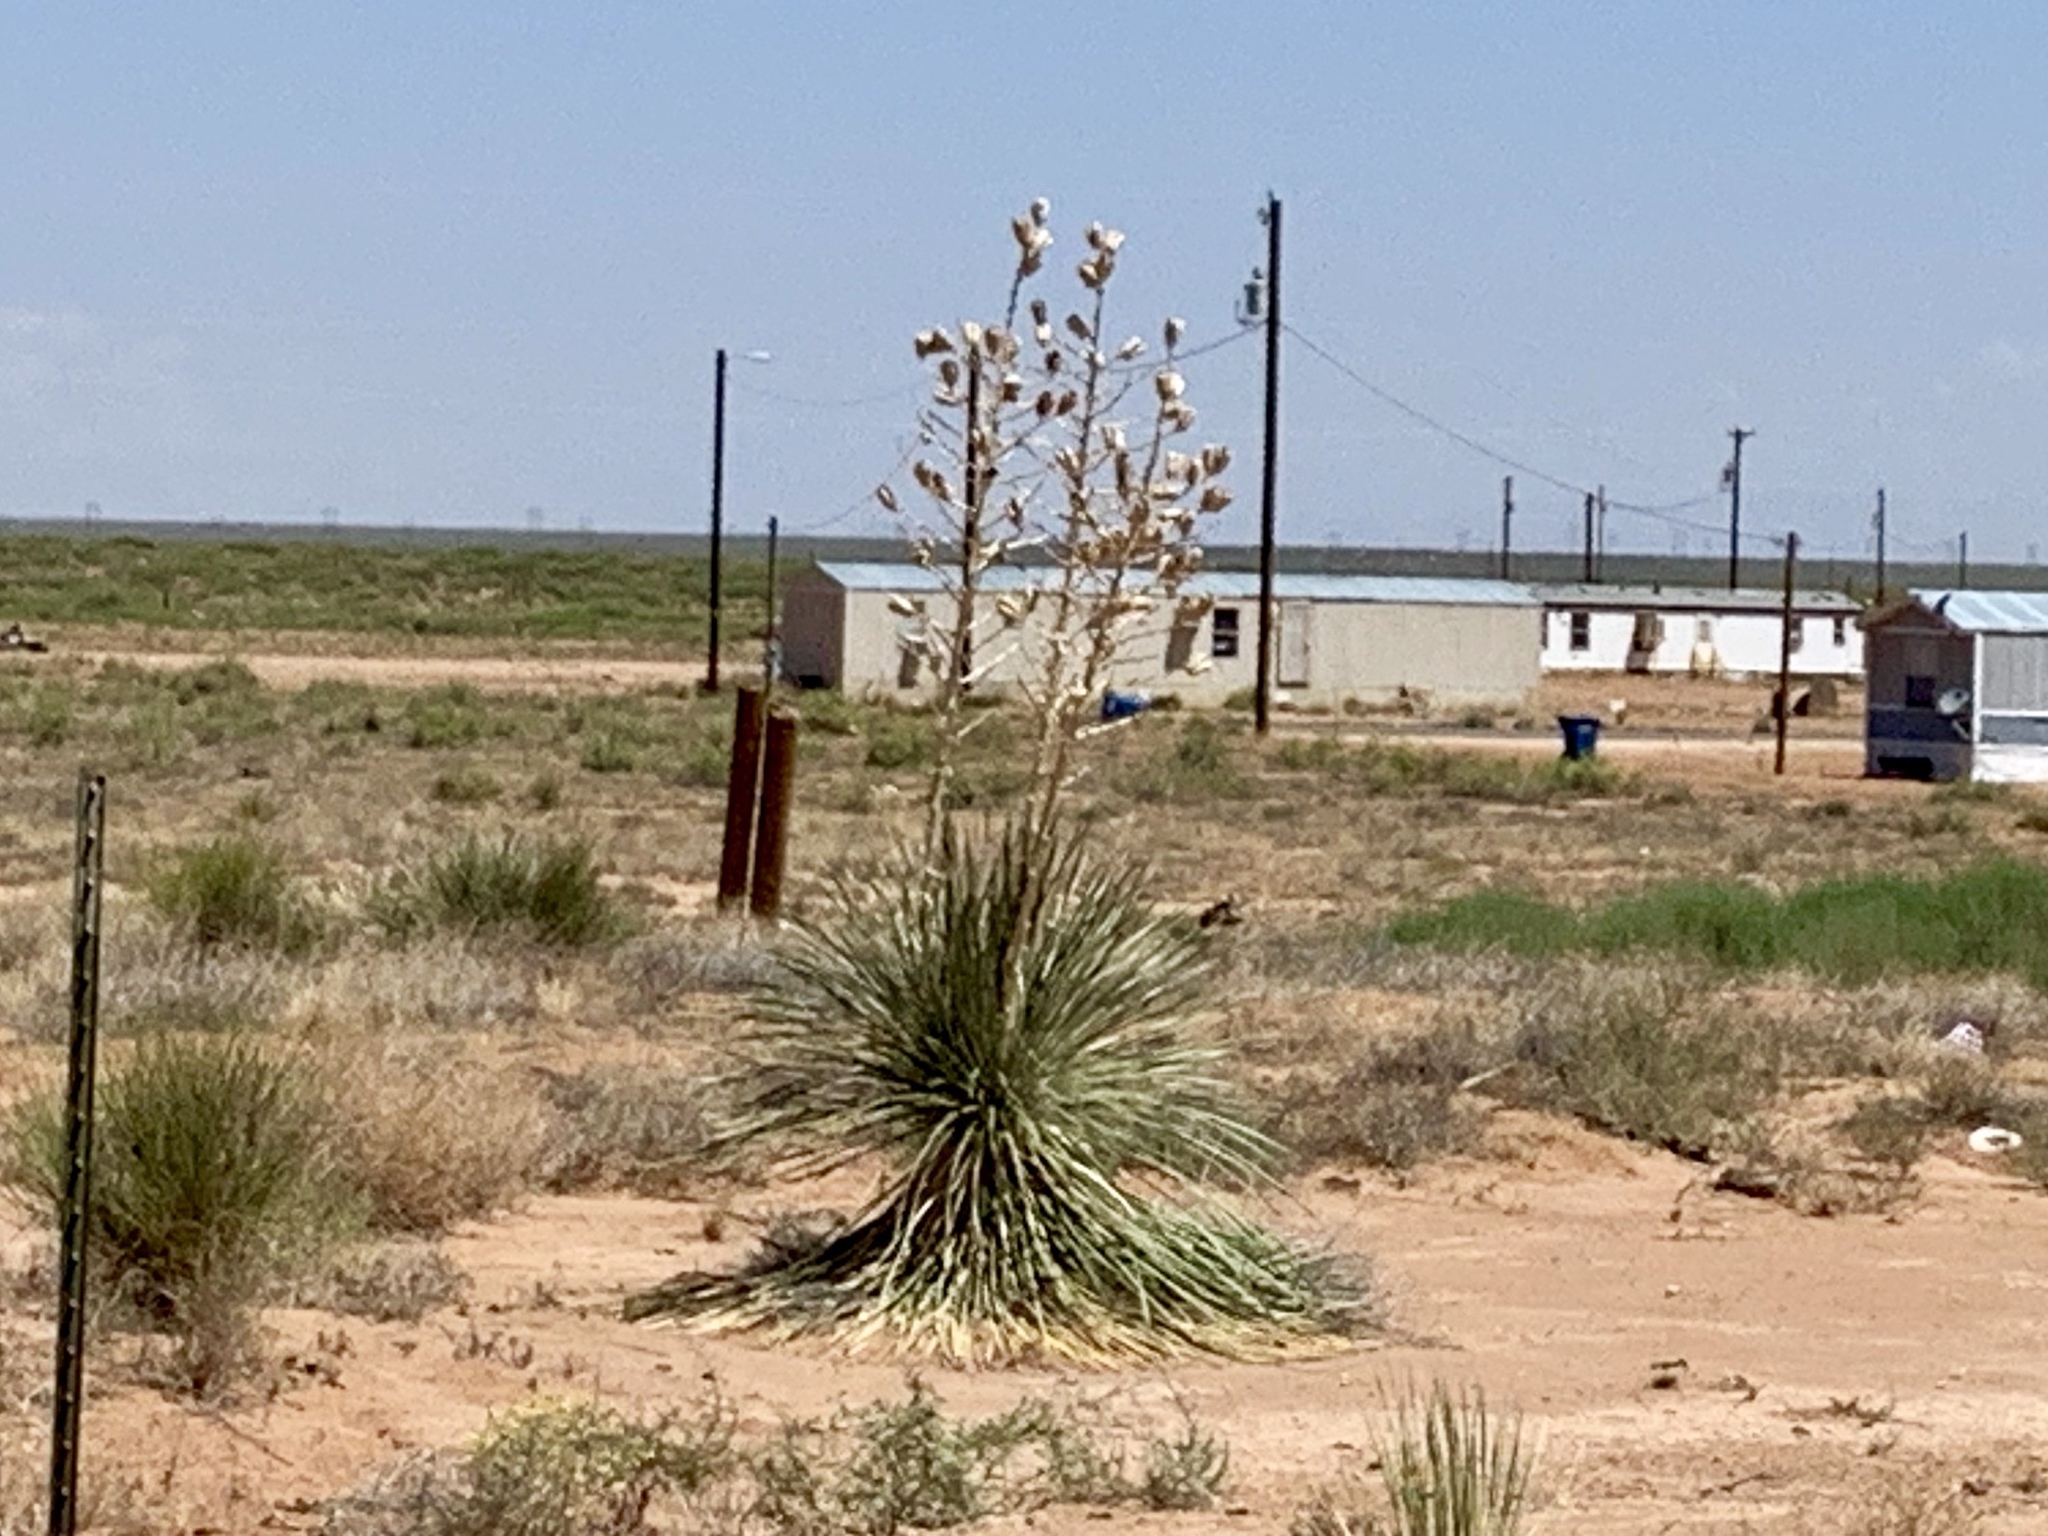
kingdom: Plantae
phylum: Tracheophyta
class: Liliopsida
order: Asparagales
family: Asparagaceae
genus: Yucca
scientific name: Yucca elata
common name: Palmella
